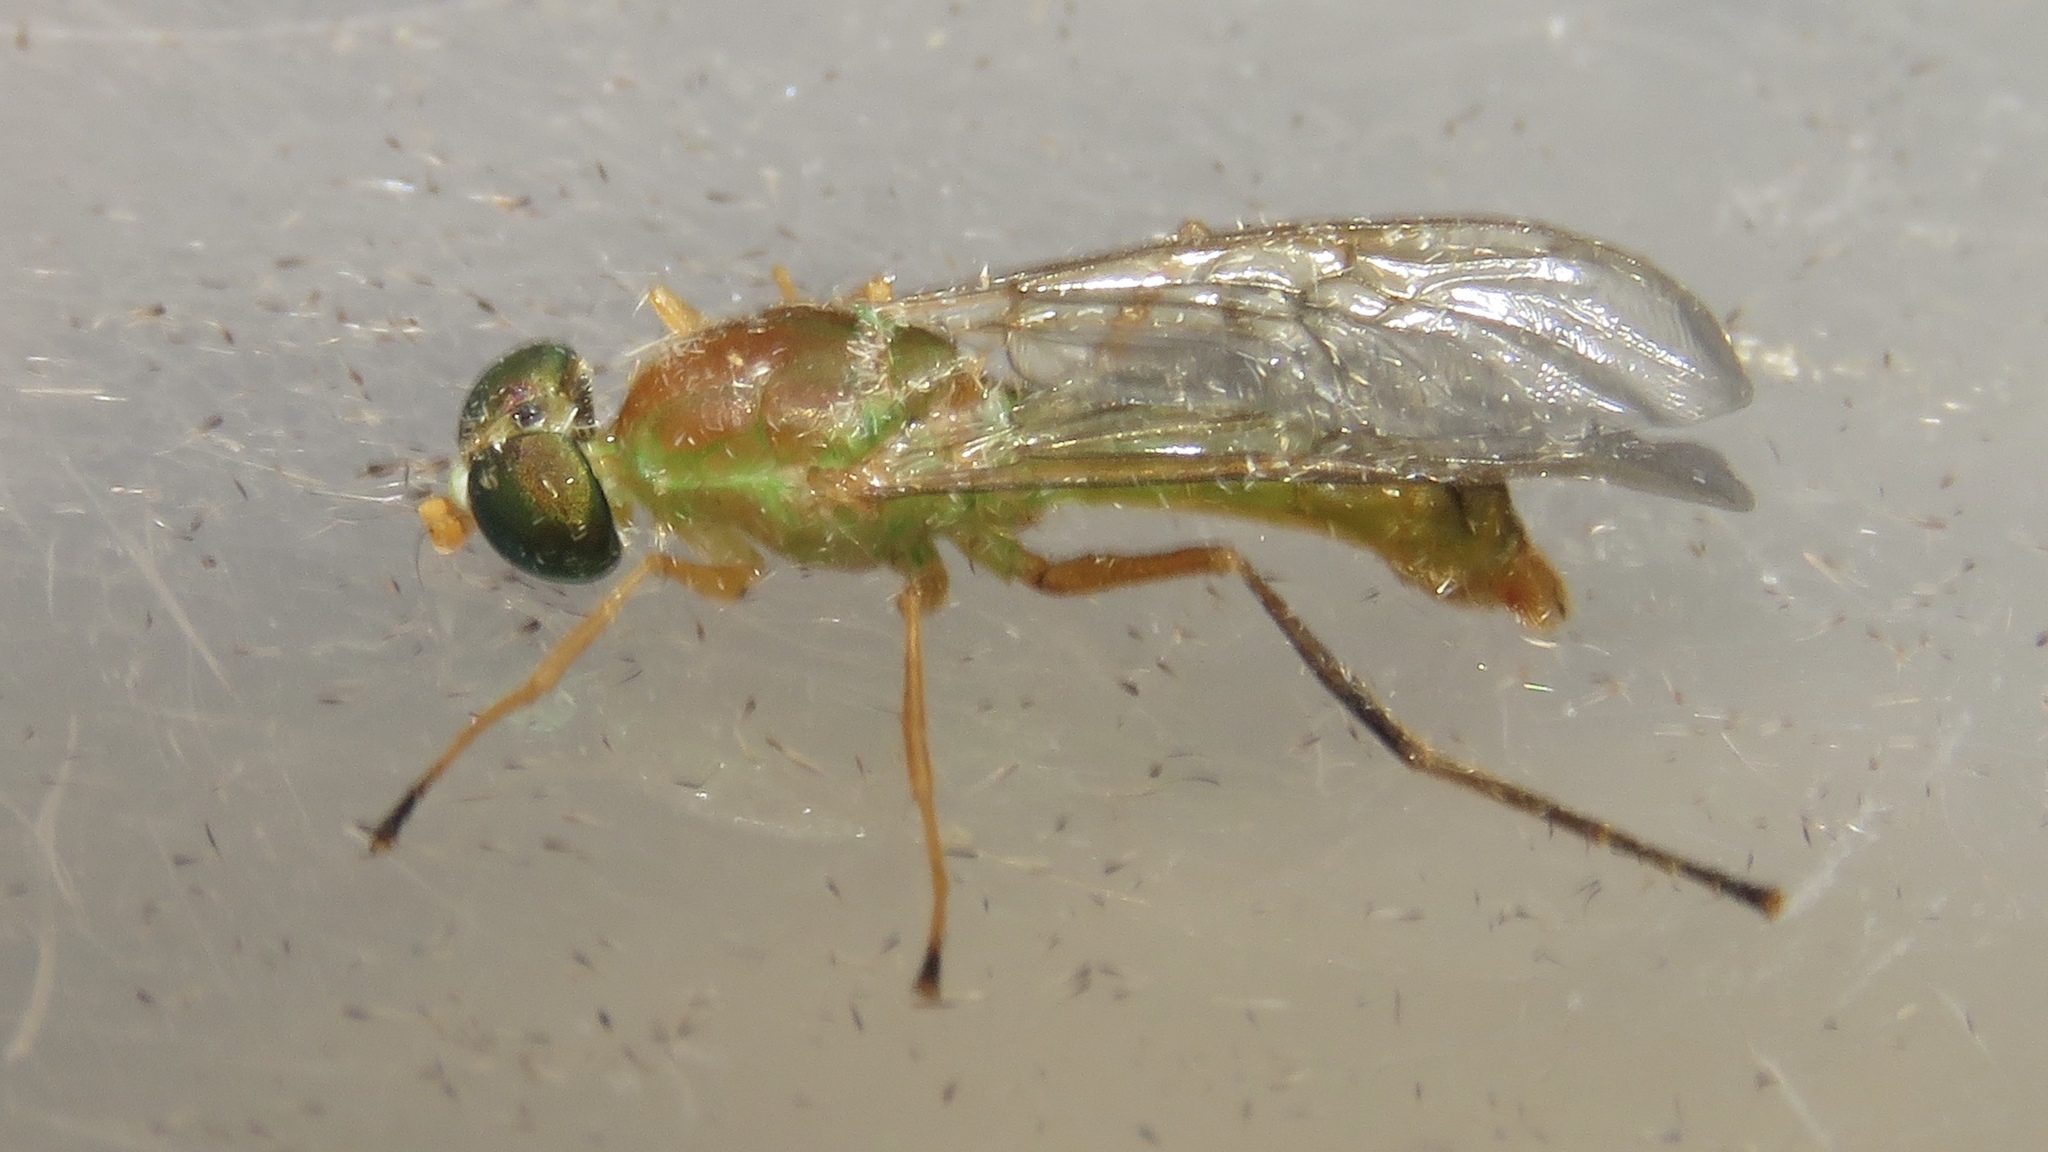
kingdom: Animalia
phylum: Arthropoda
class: Insecta
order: Diptera
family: Stratiomyidae
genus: Ptecticus
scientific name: Ptecticus trivittatus
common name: Compost fly
